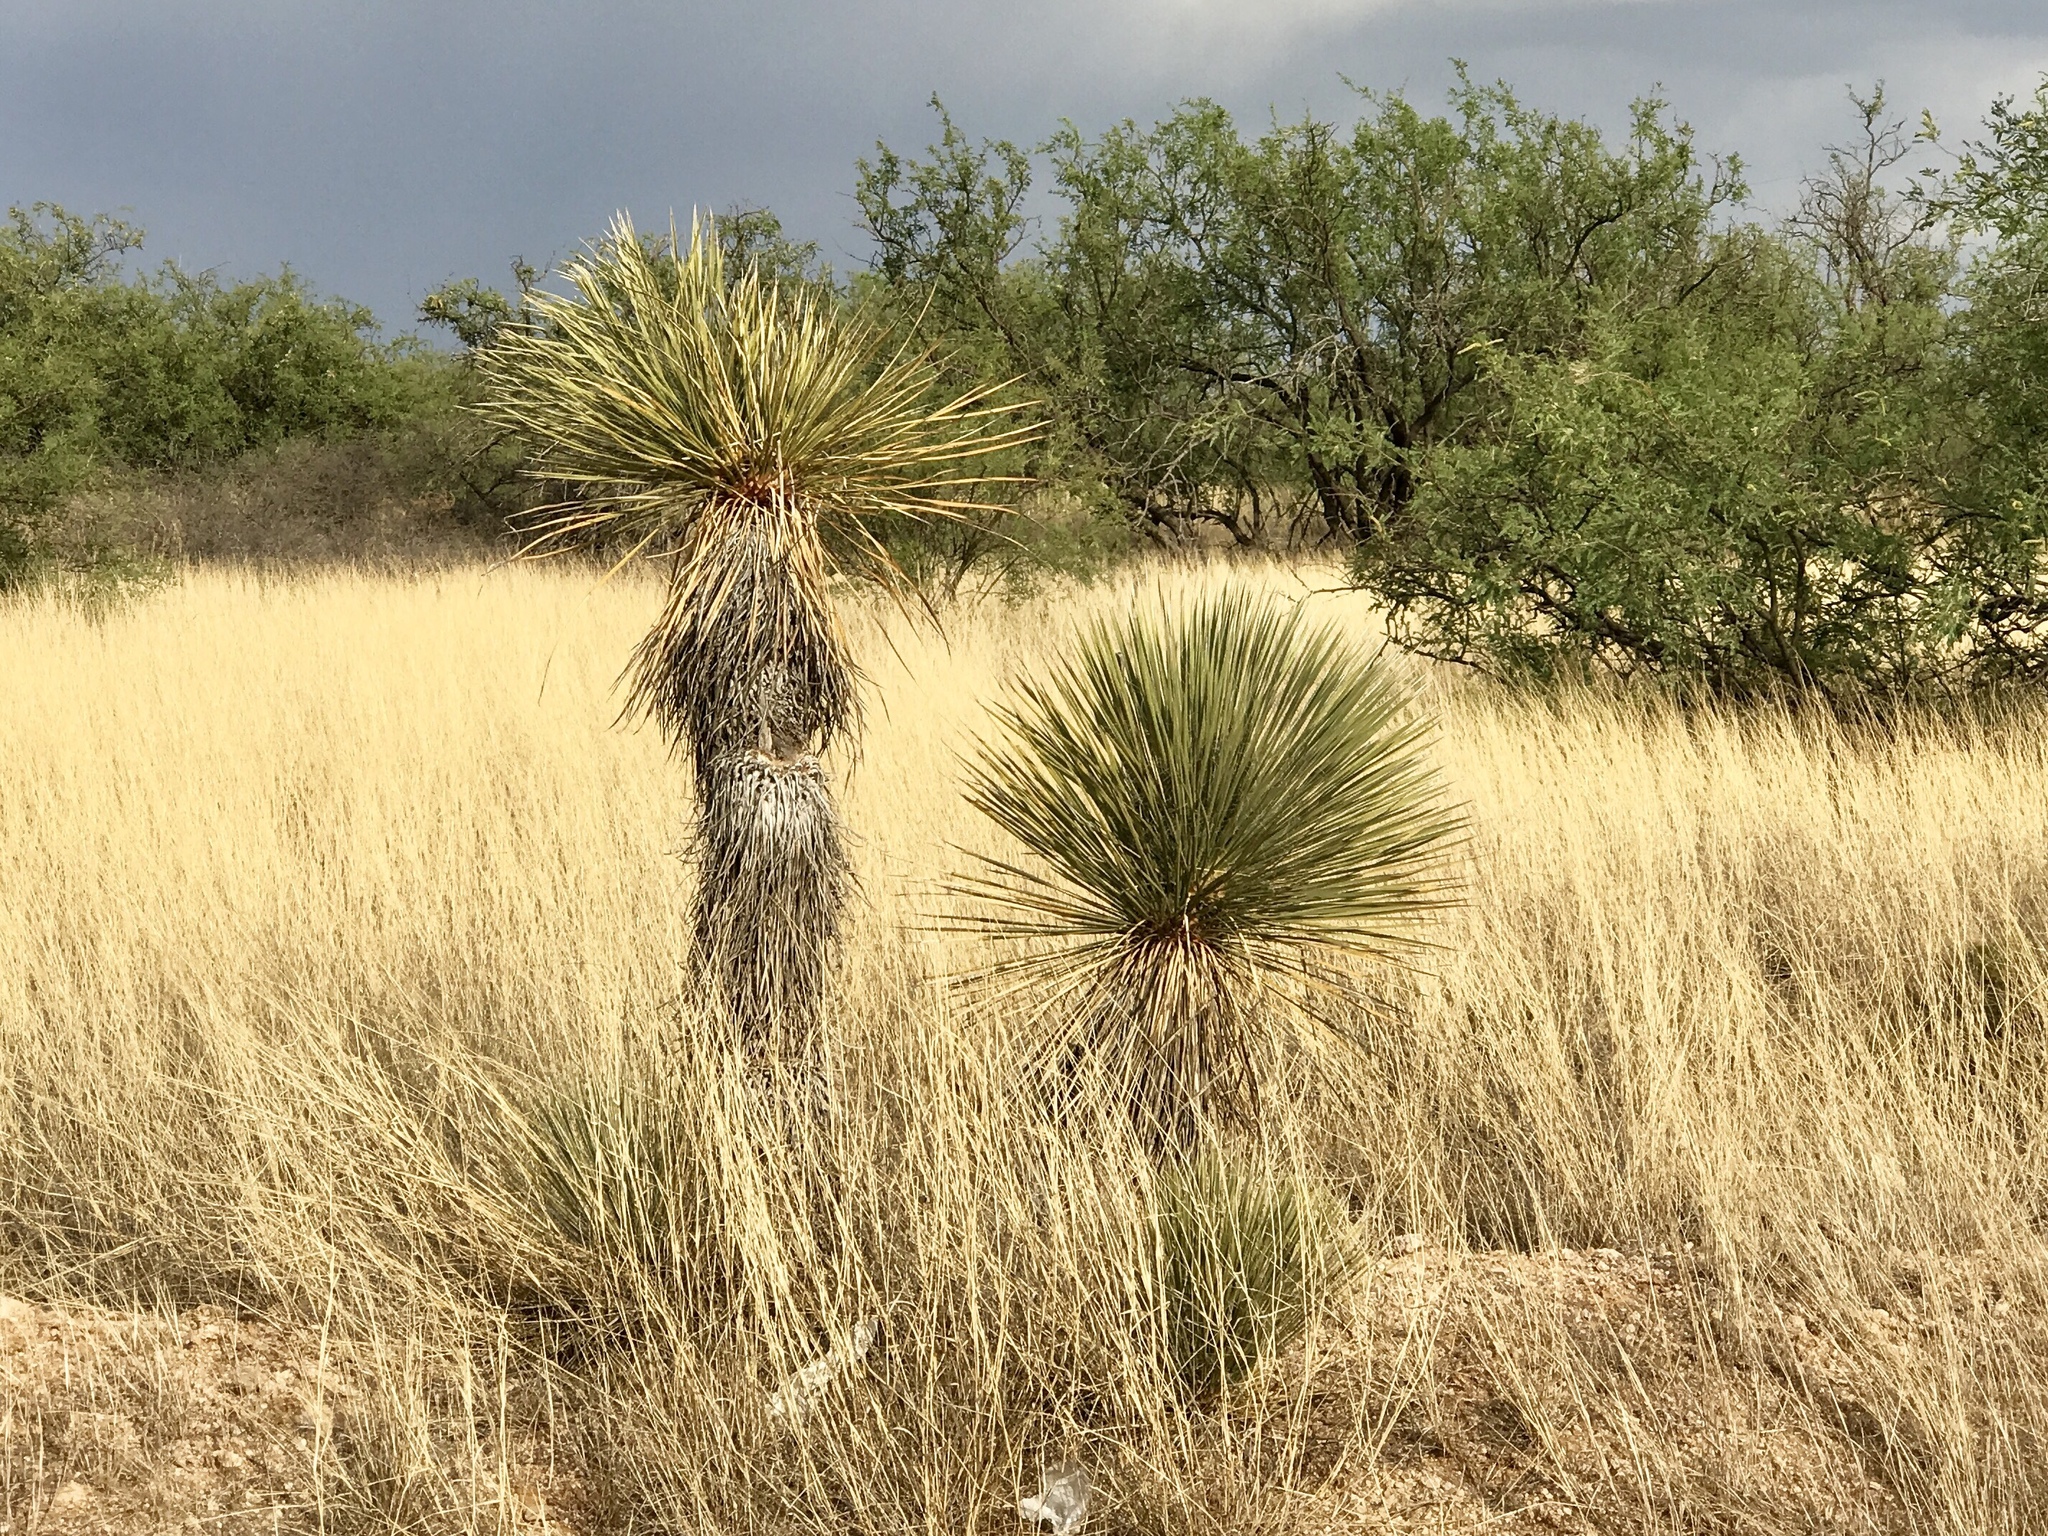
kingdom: Plantae
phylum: Tracheophyta
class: Liliopsida
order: Asparagales
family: Asparagaceae
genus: Yucca
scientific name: Yucca elata
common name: Palmella
